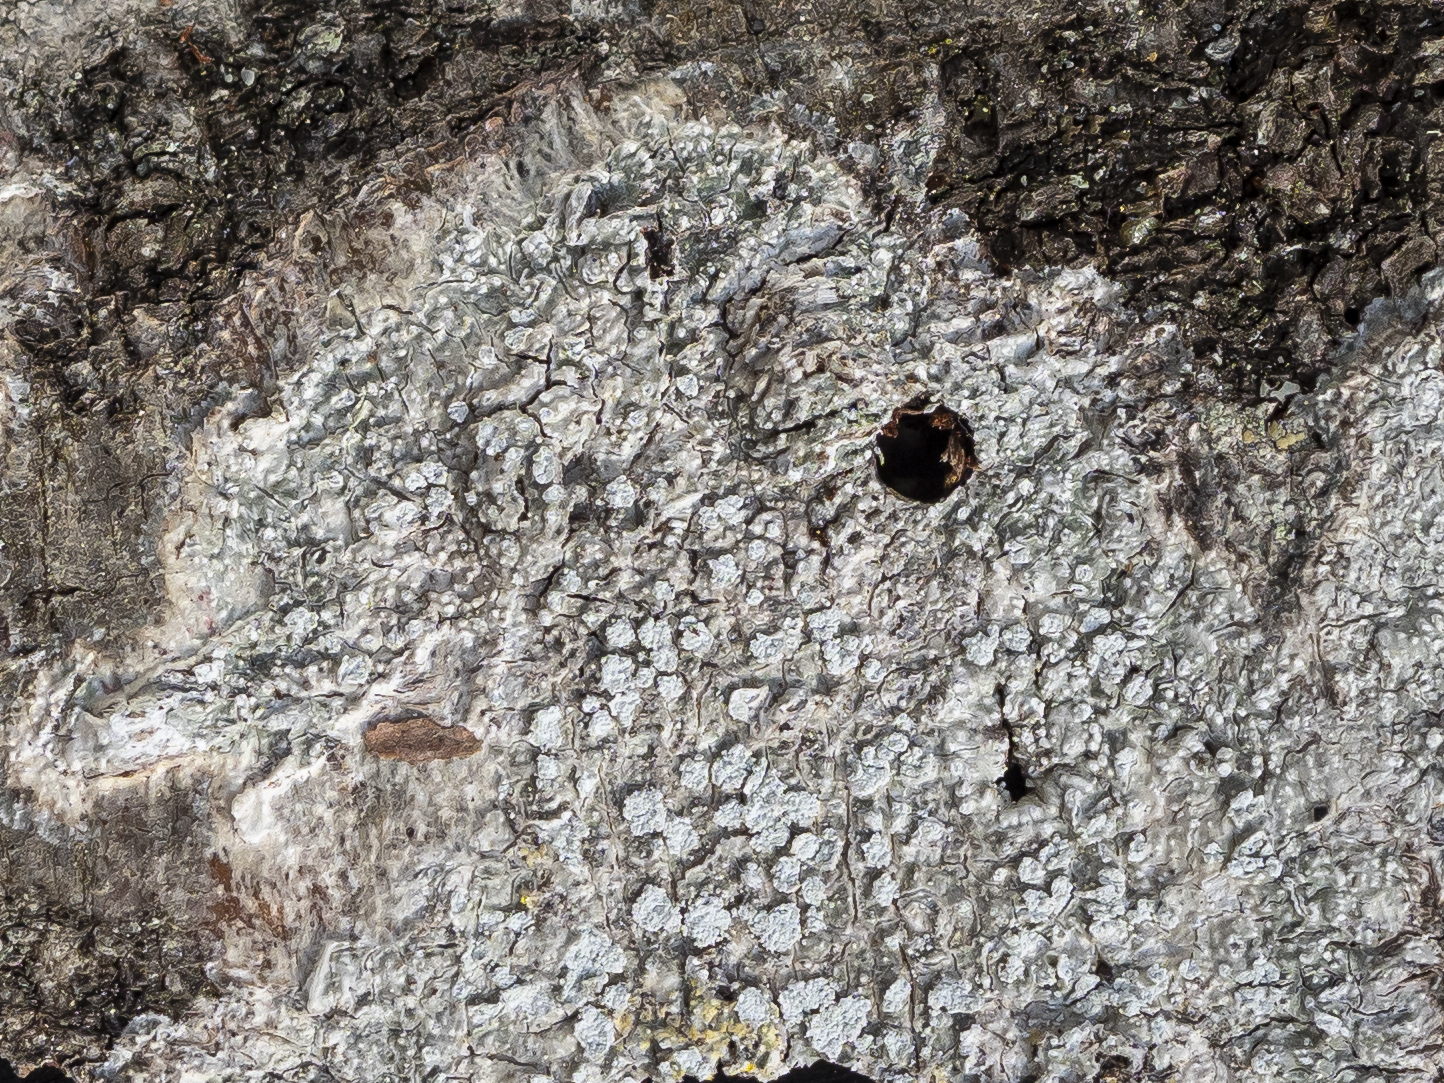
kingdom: Fungi
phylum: Ascomycota
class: Lecanoromycetes
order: Pertusariales
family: Pertusariaceae
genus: Lepra
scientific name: Lepra amara
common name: Bitter wart lichen
